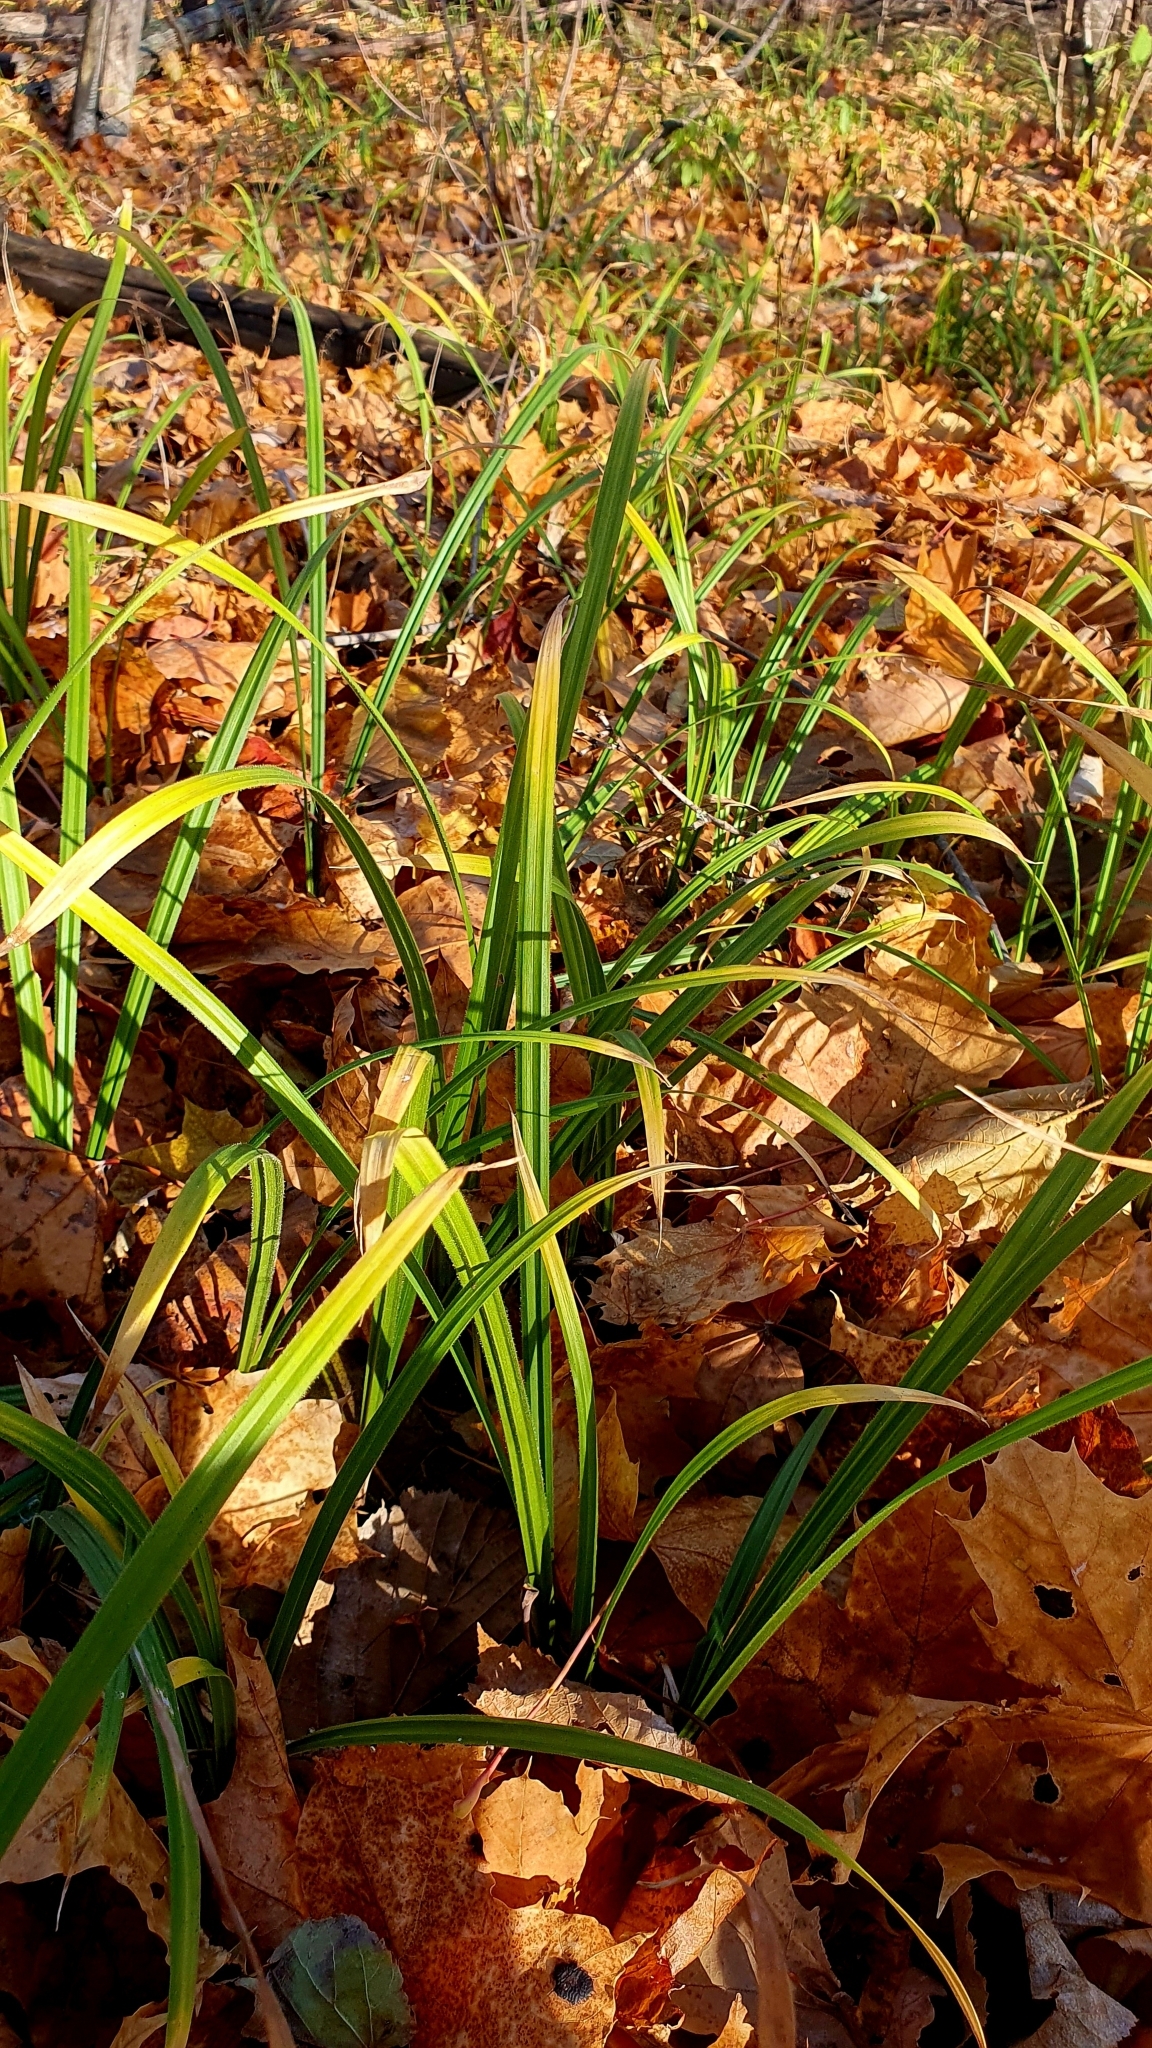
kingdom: Plantae
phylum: Tracheophyta
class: Liliopsida
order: Poales
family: Cyperaceae
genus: Carex
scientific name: Carex pilosa
